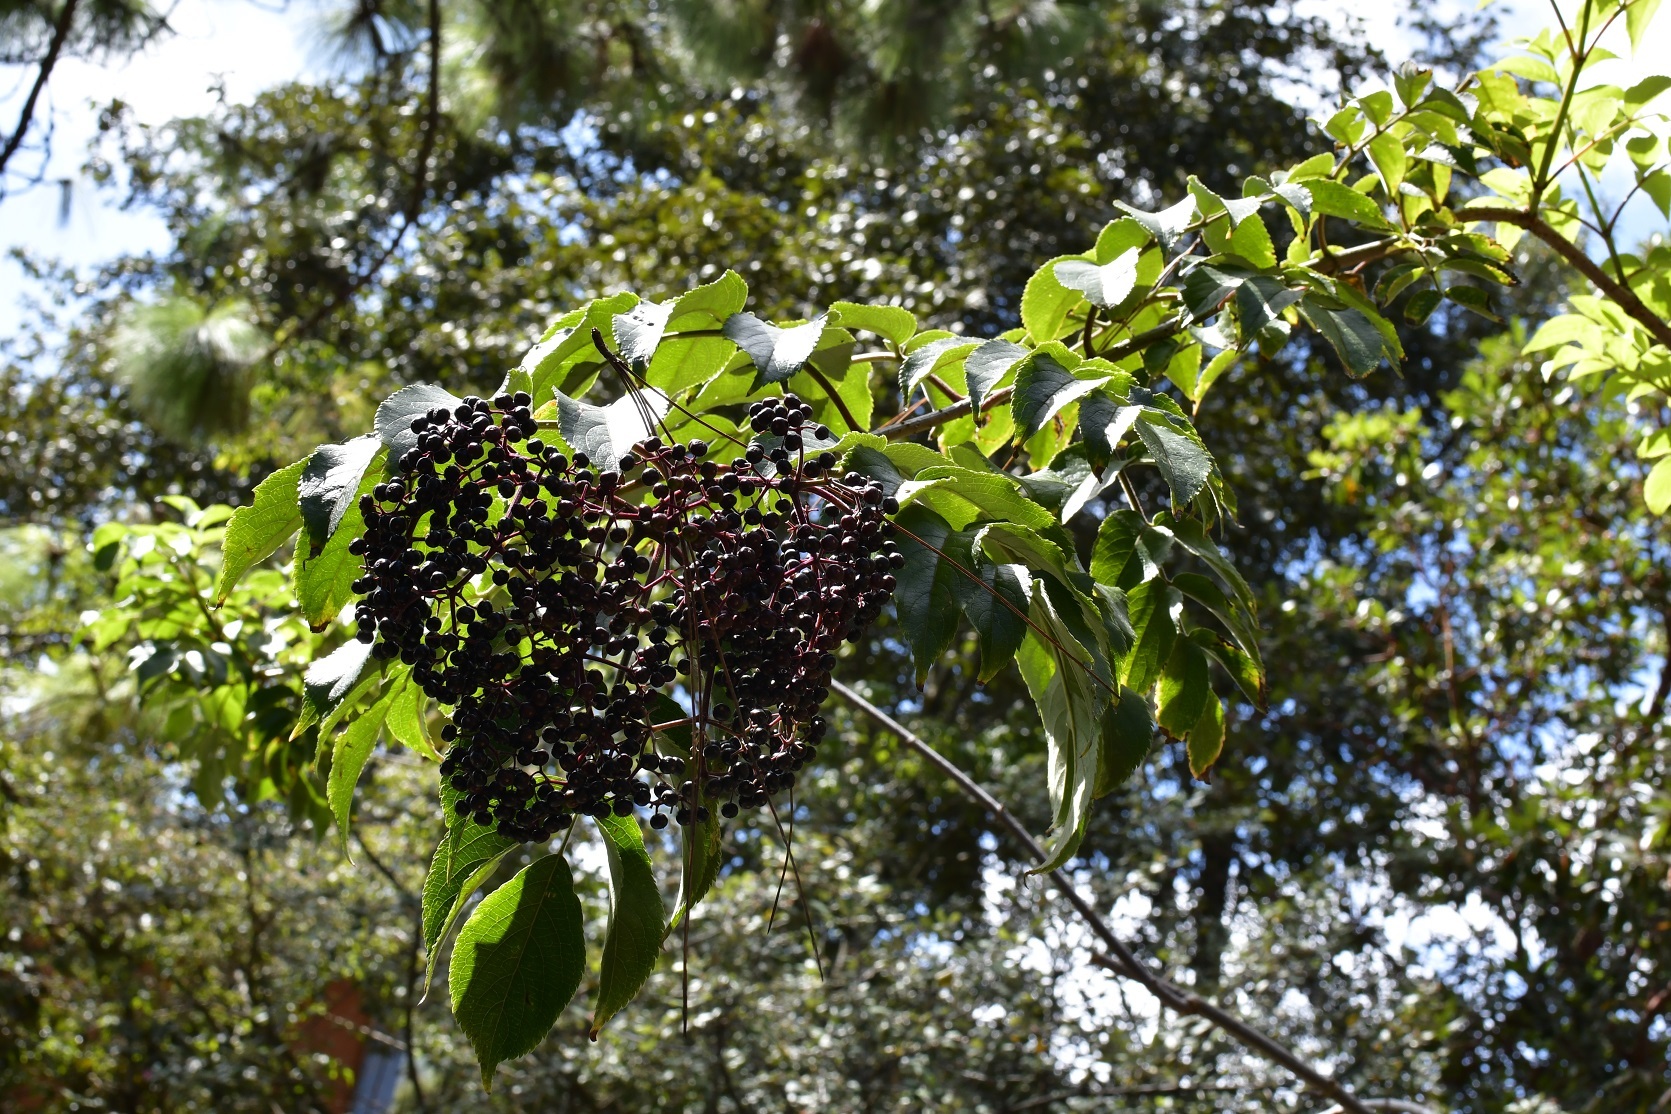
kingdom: Plantae
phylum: Tracheophyta
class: Magnoliopsida
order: Dipsacales
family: Viburnaceae
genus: Sambucus
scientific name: Sambucus nigra
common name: Elder
